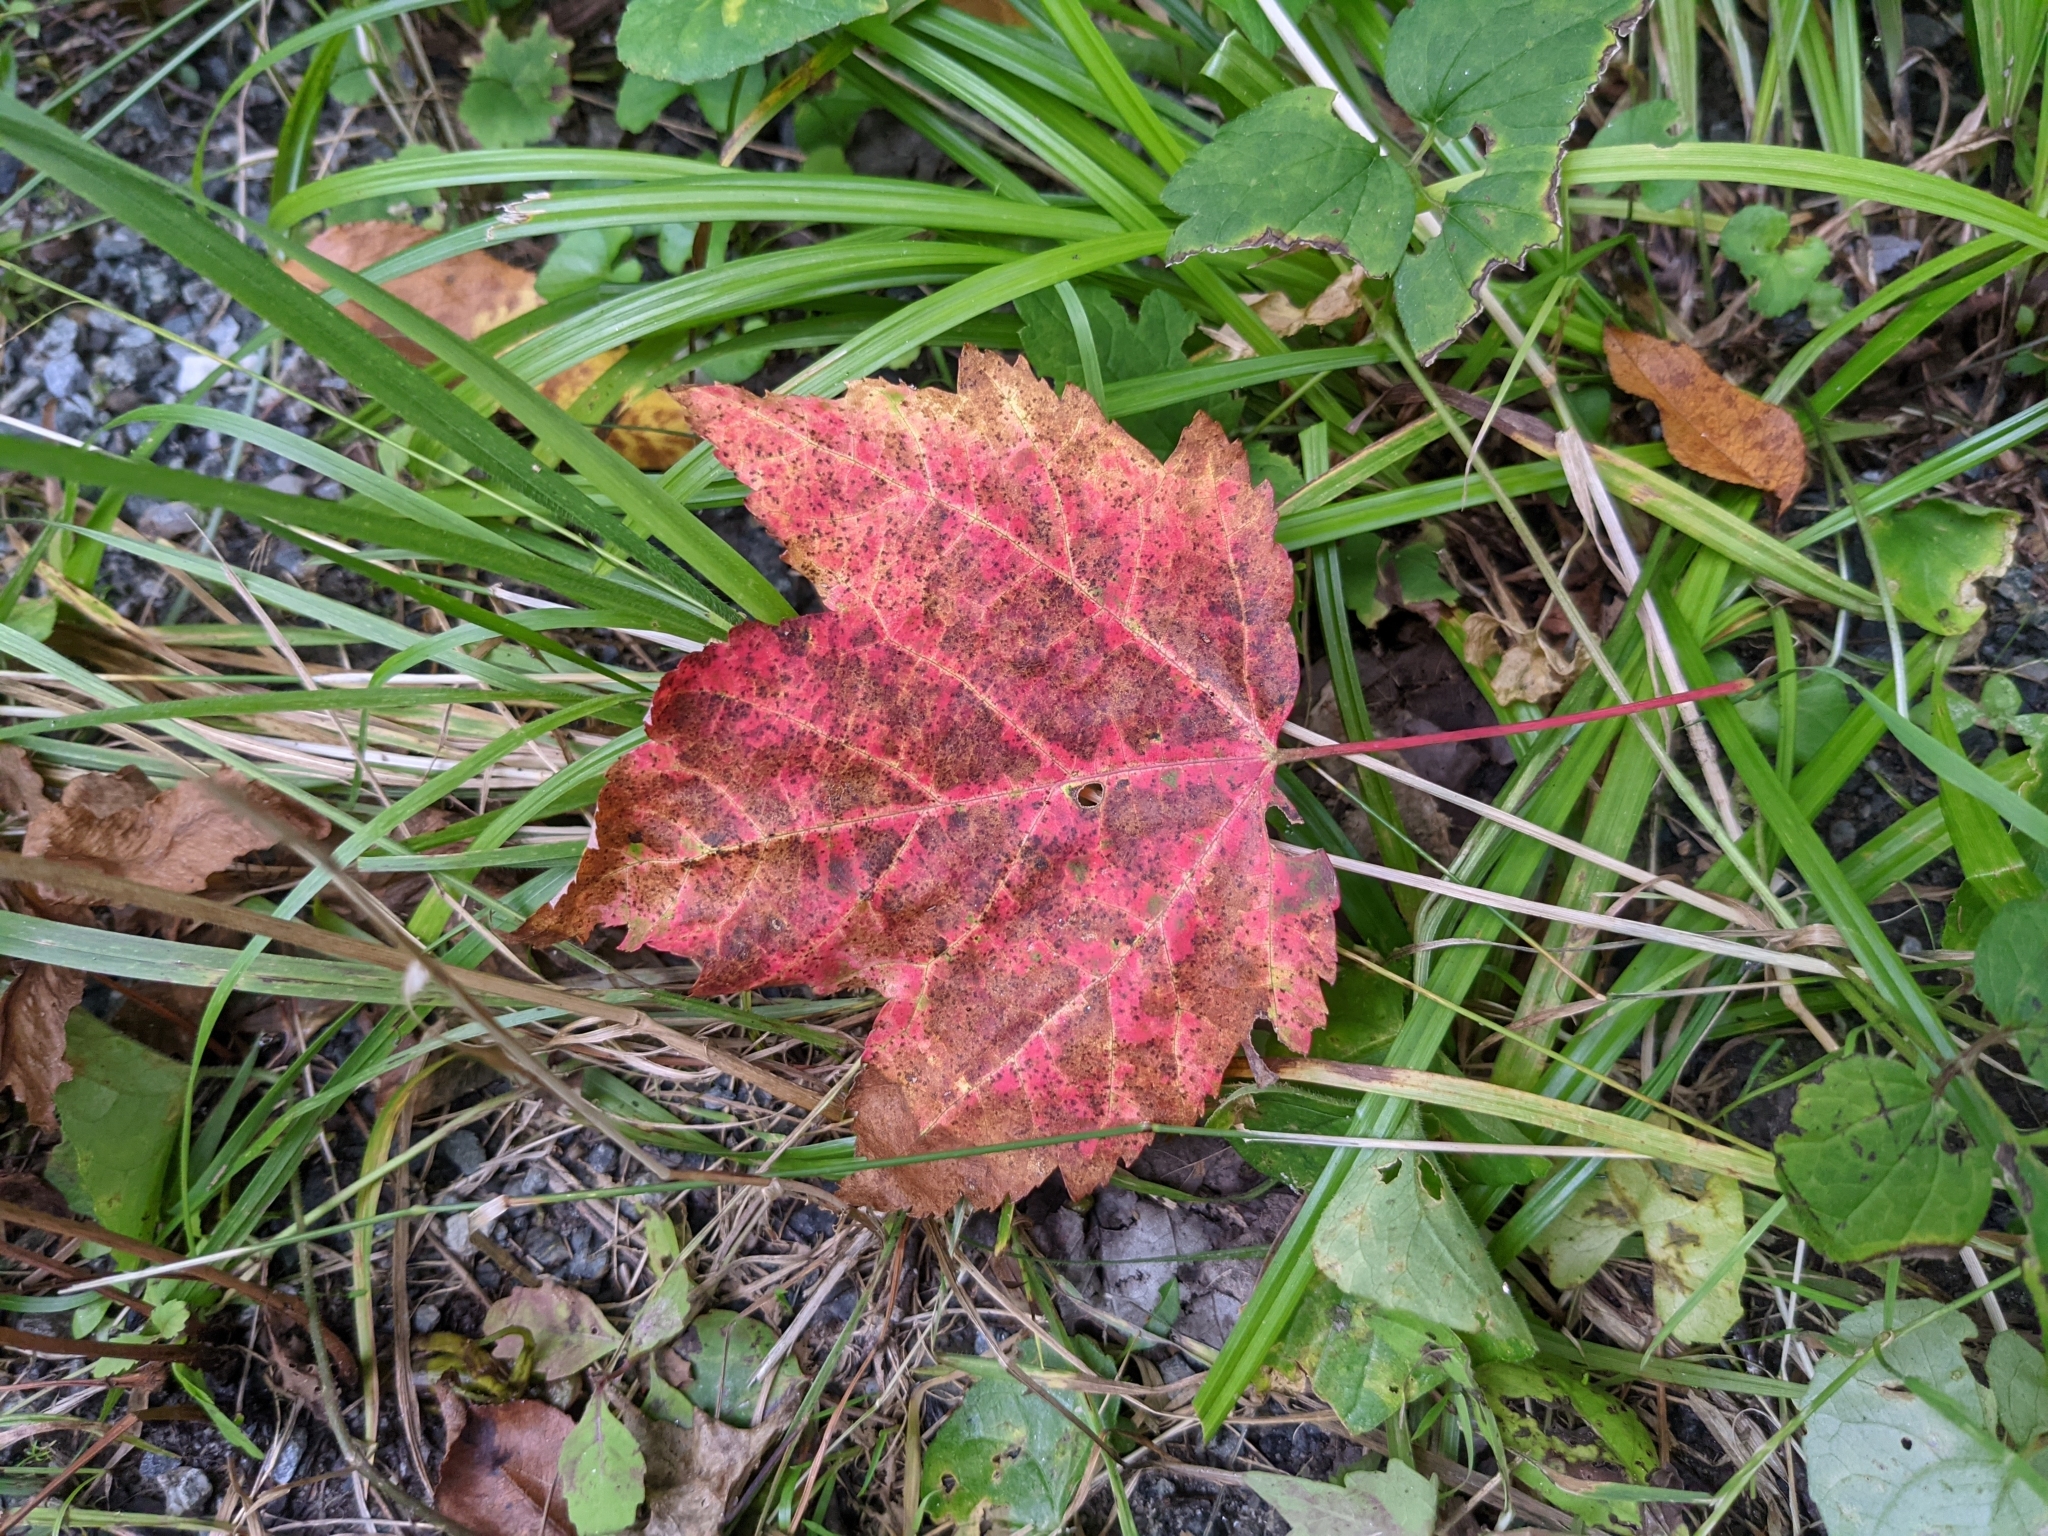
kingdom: Plantae
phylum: Tracheophyta
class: Magnoliopsida
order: Sapindales
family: Sapindaceae
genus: Acer
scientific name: Acer rubrum
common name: Red maple
